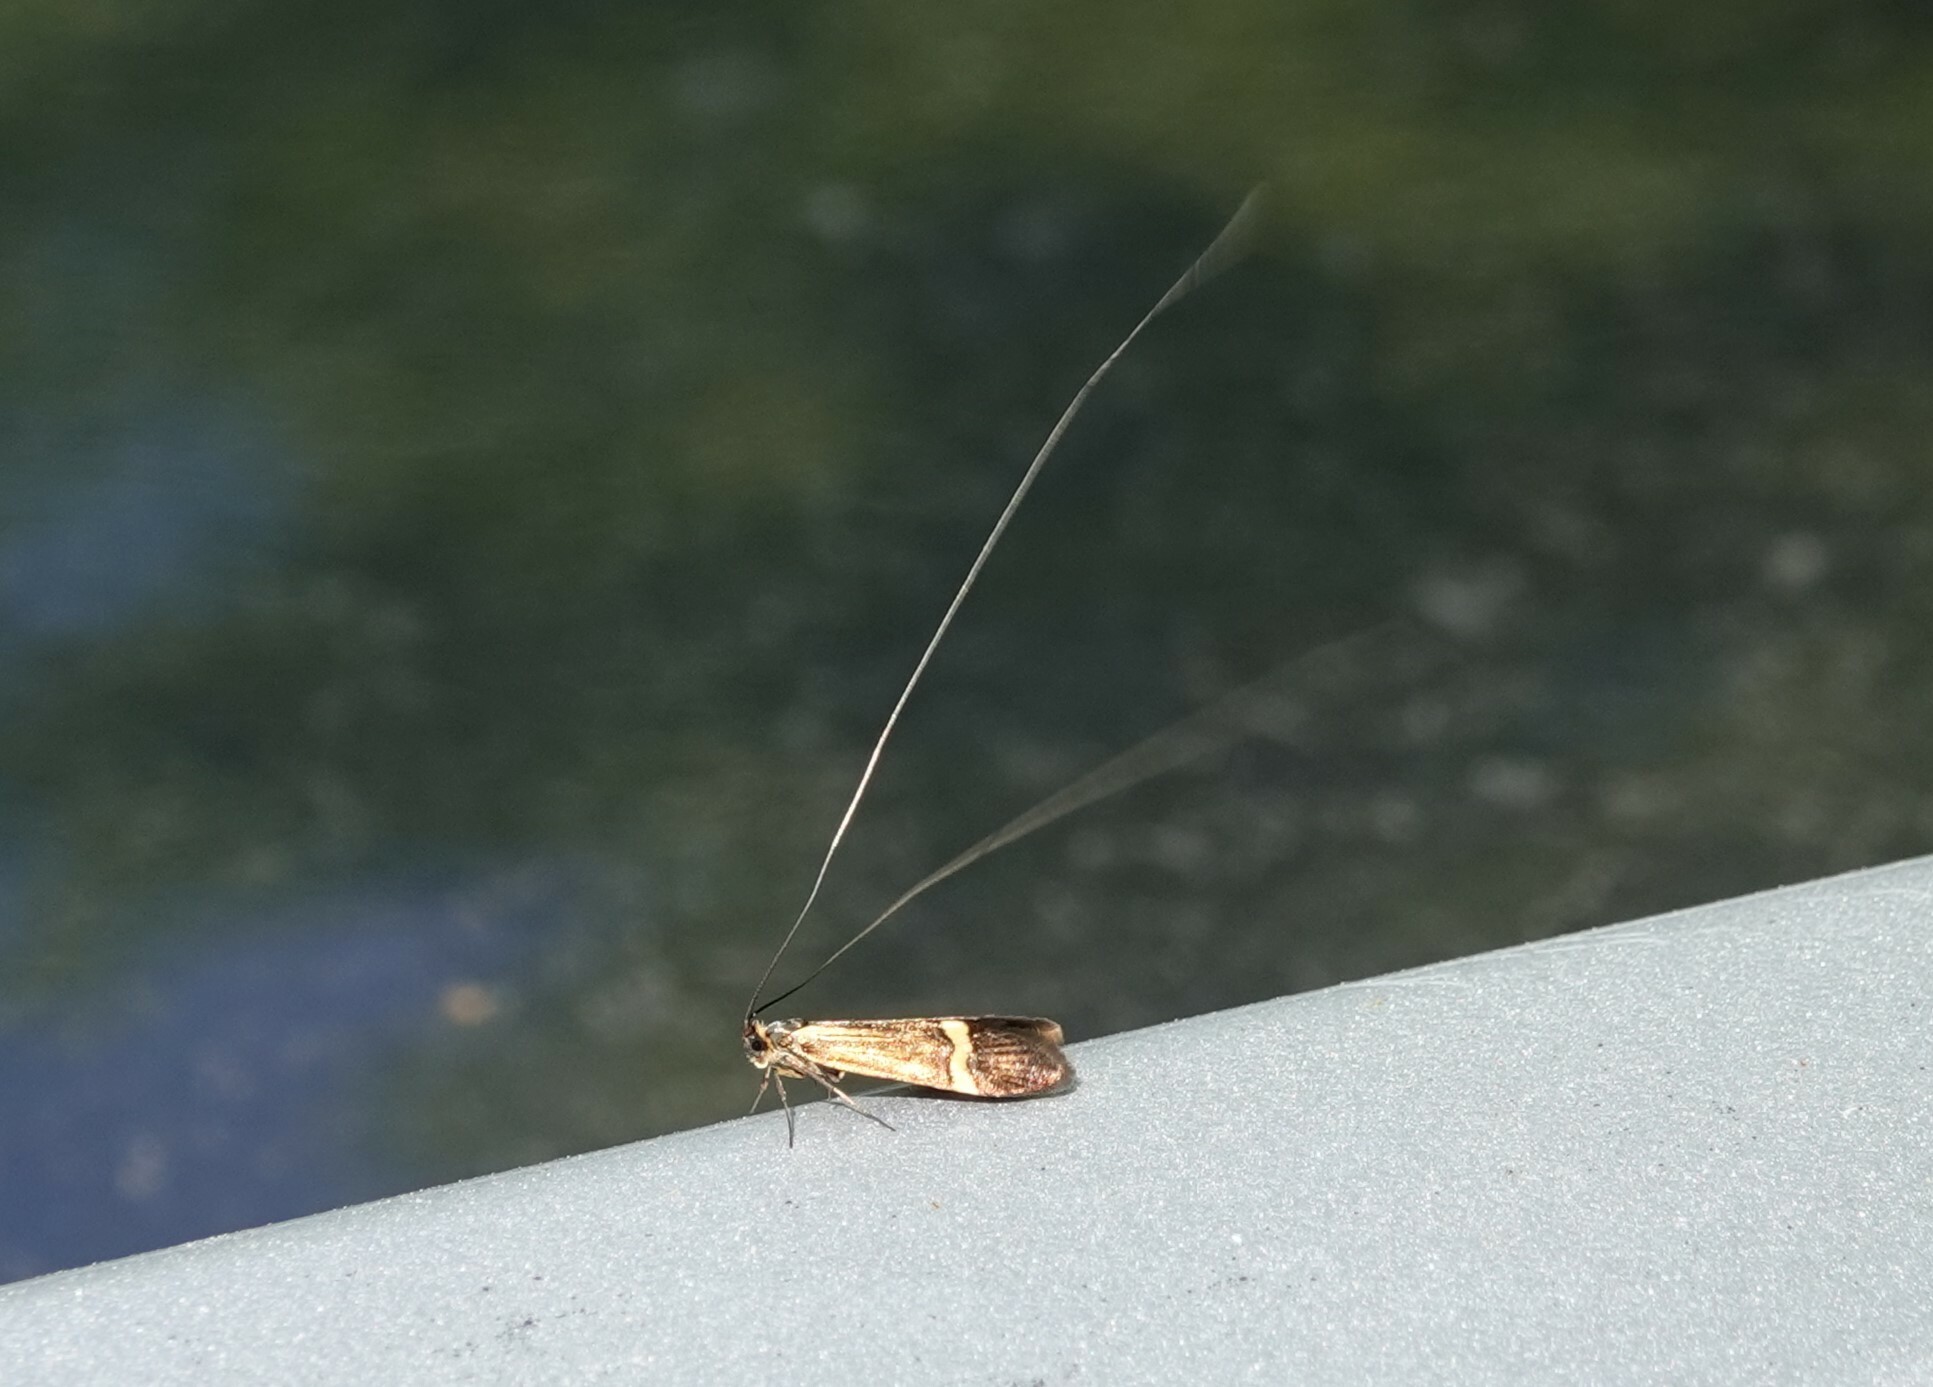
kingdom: Animalia
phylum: Arthropoda
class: Insecta
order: Lepidoptera
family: Adelidae
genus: Nemophora
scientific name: Nemophora degeerella
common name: Yellow-barred long-horn
